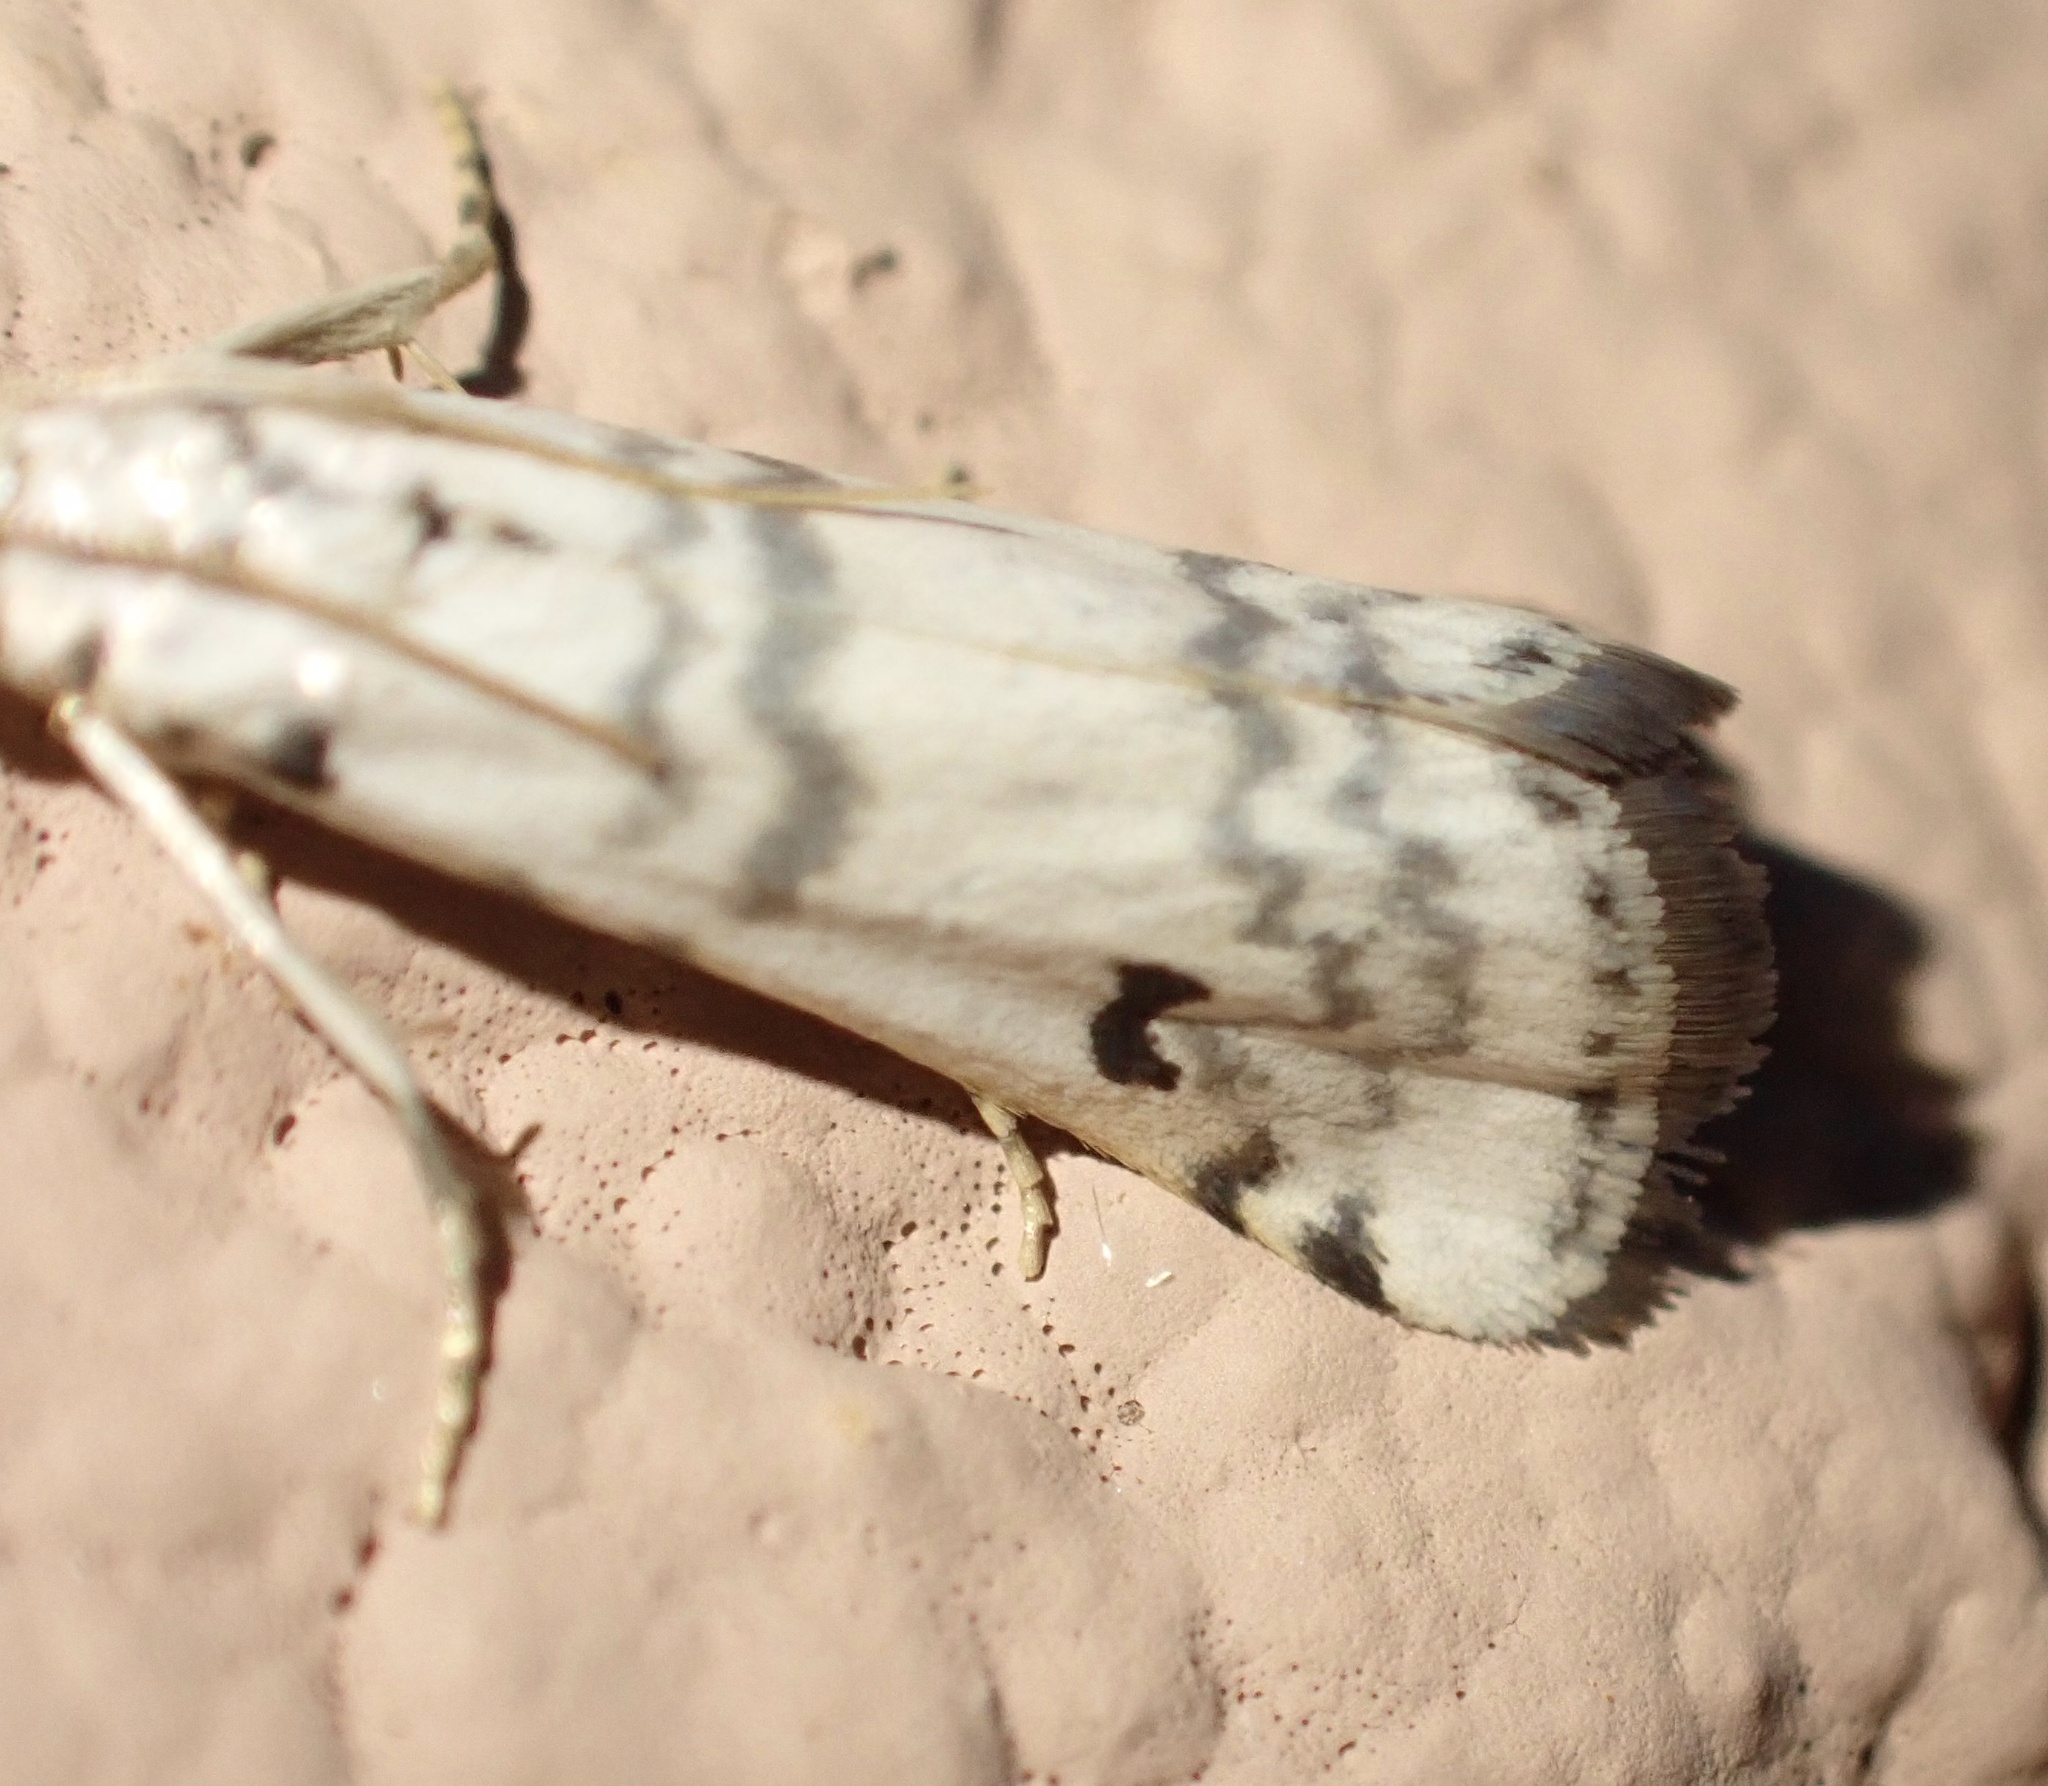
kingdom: Animalia
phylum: Arthropoda
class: Insecta
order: Lepidoptera
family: Pyralidae
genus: Euzophera
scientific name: Euzophera lunulella
